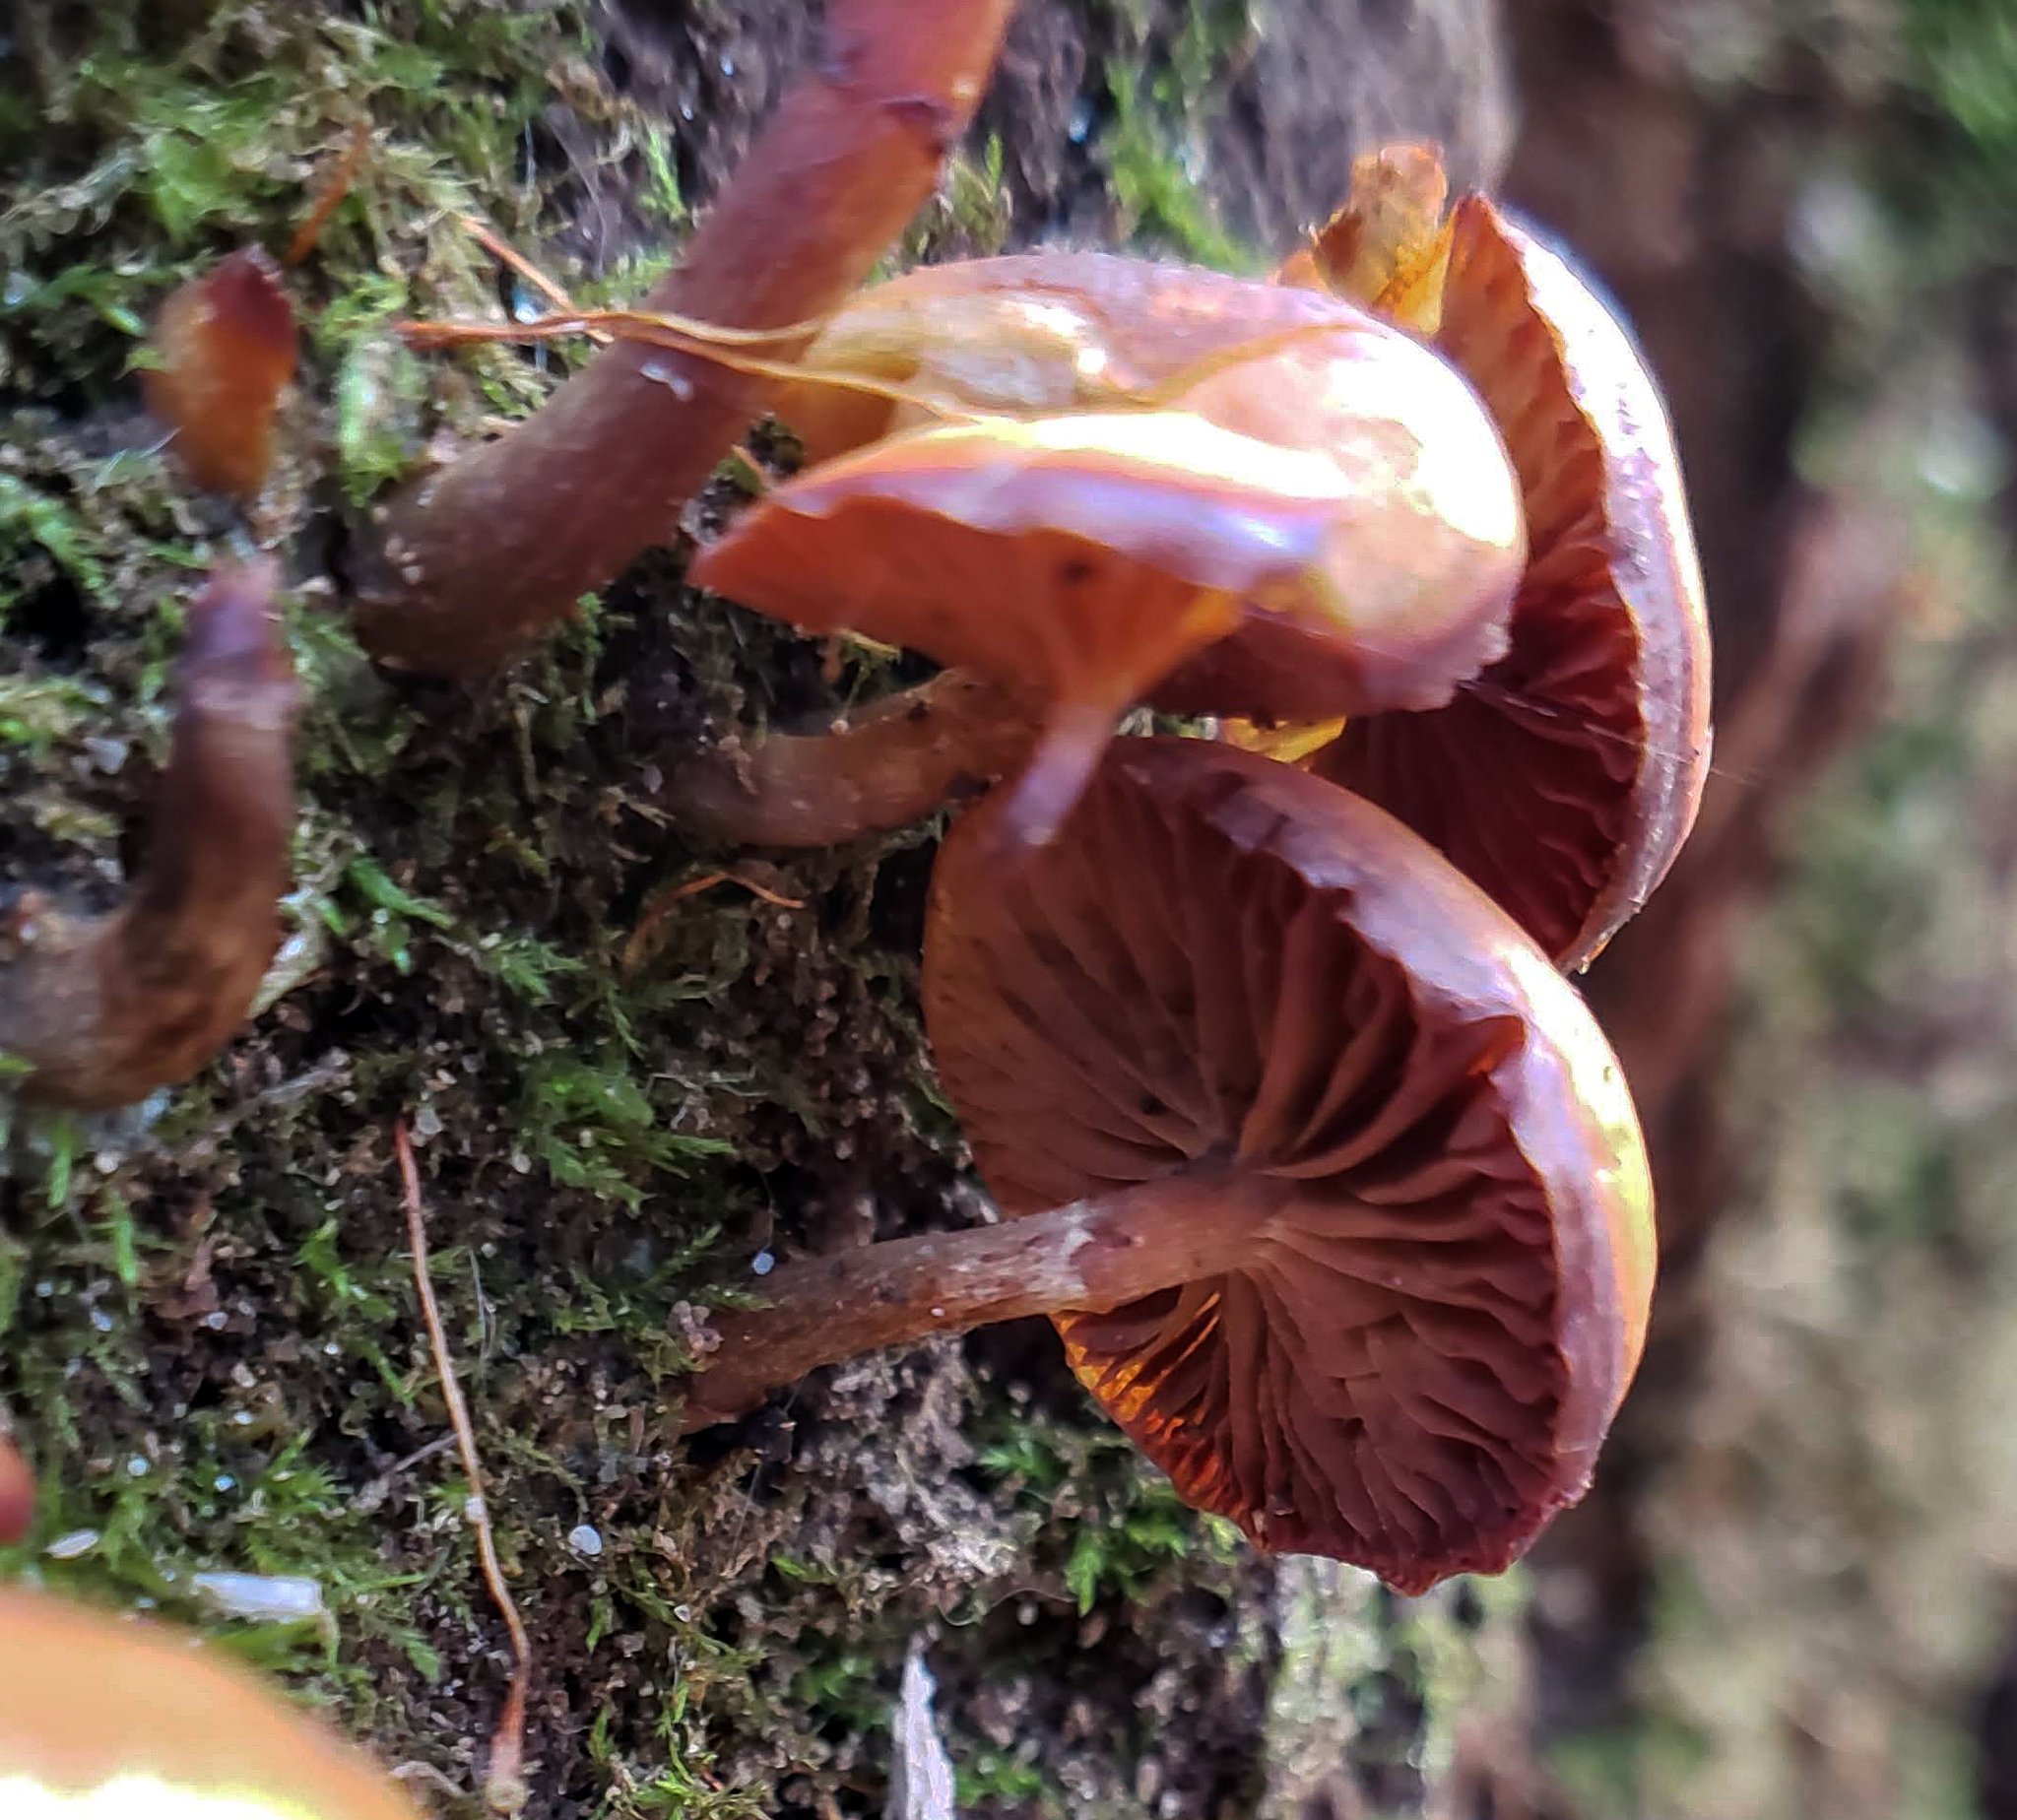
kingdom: Fungi
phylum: Basidiomycota
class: Agaricomycetes
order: Agaricales
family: Hymenogastraceae
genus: Galerina
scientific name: Galerina marginata
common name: Funeral bell
